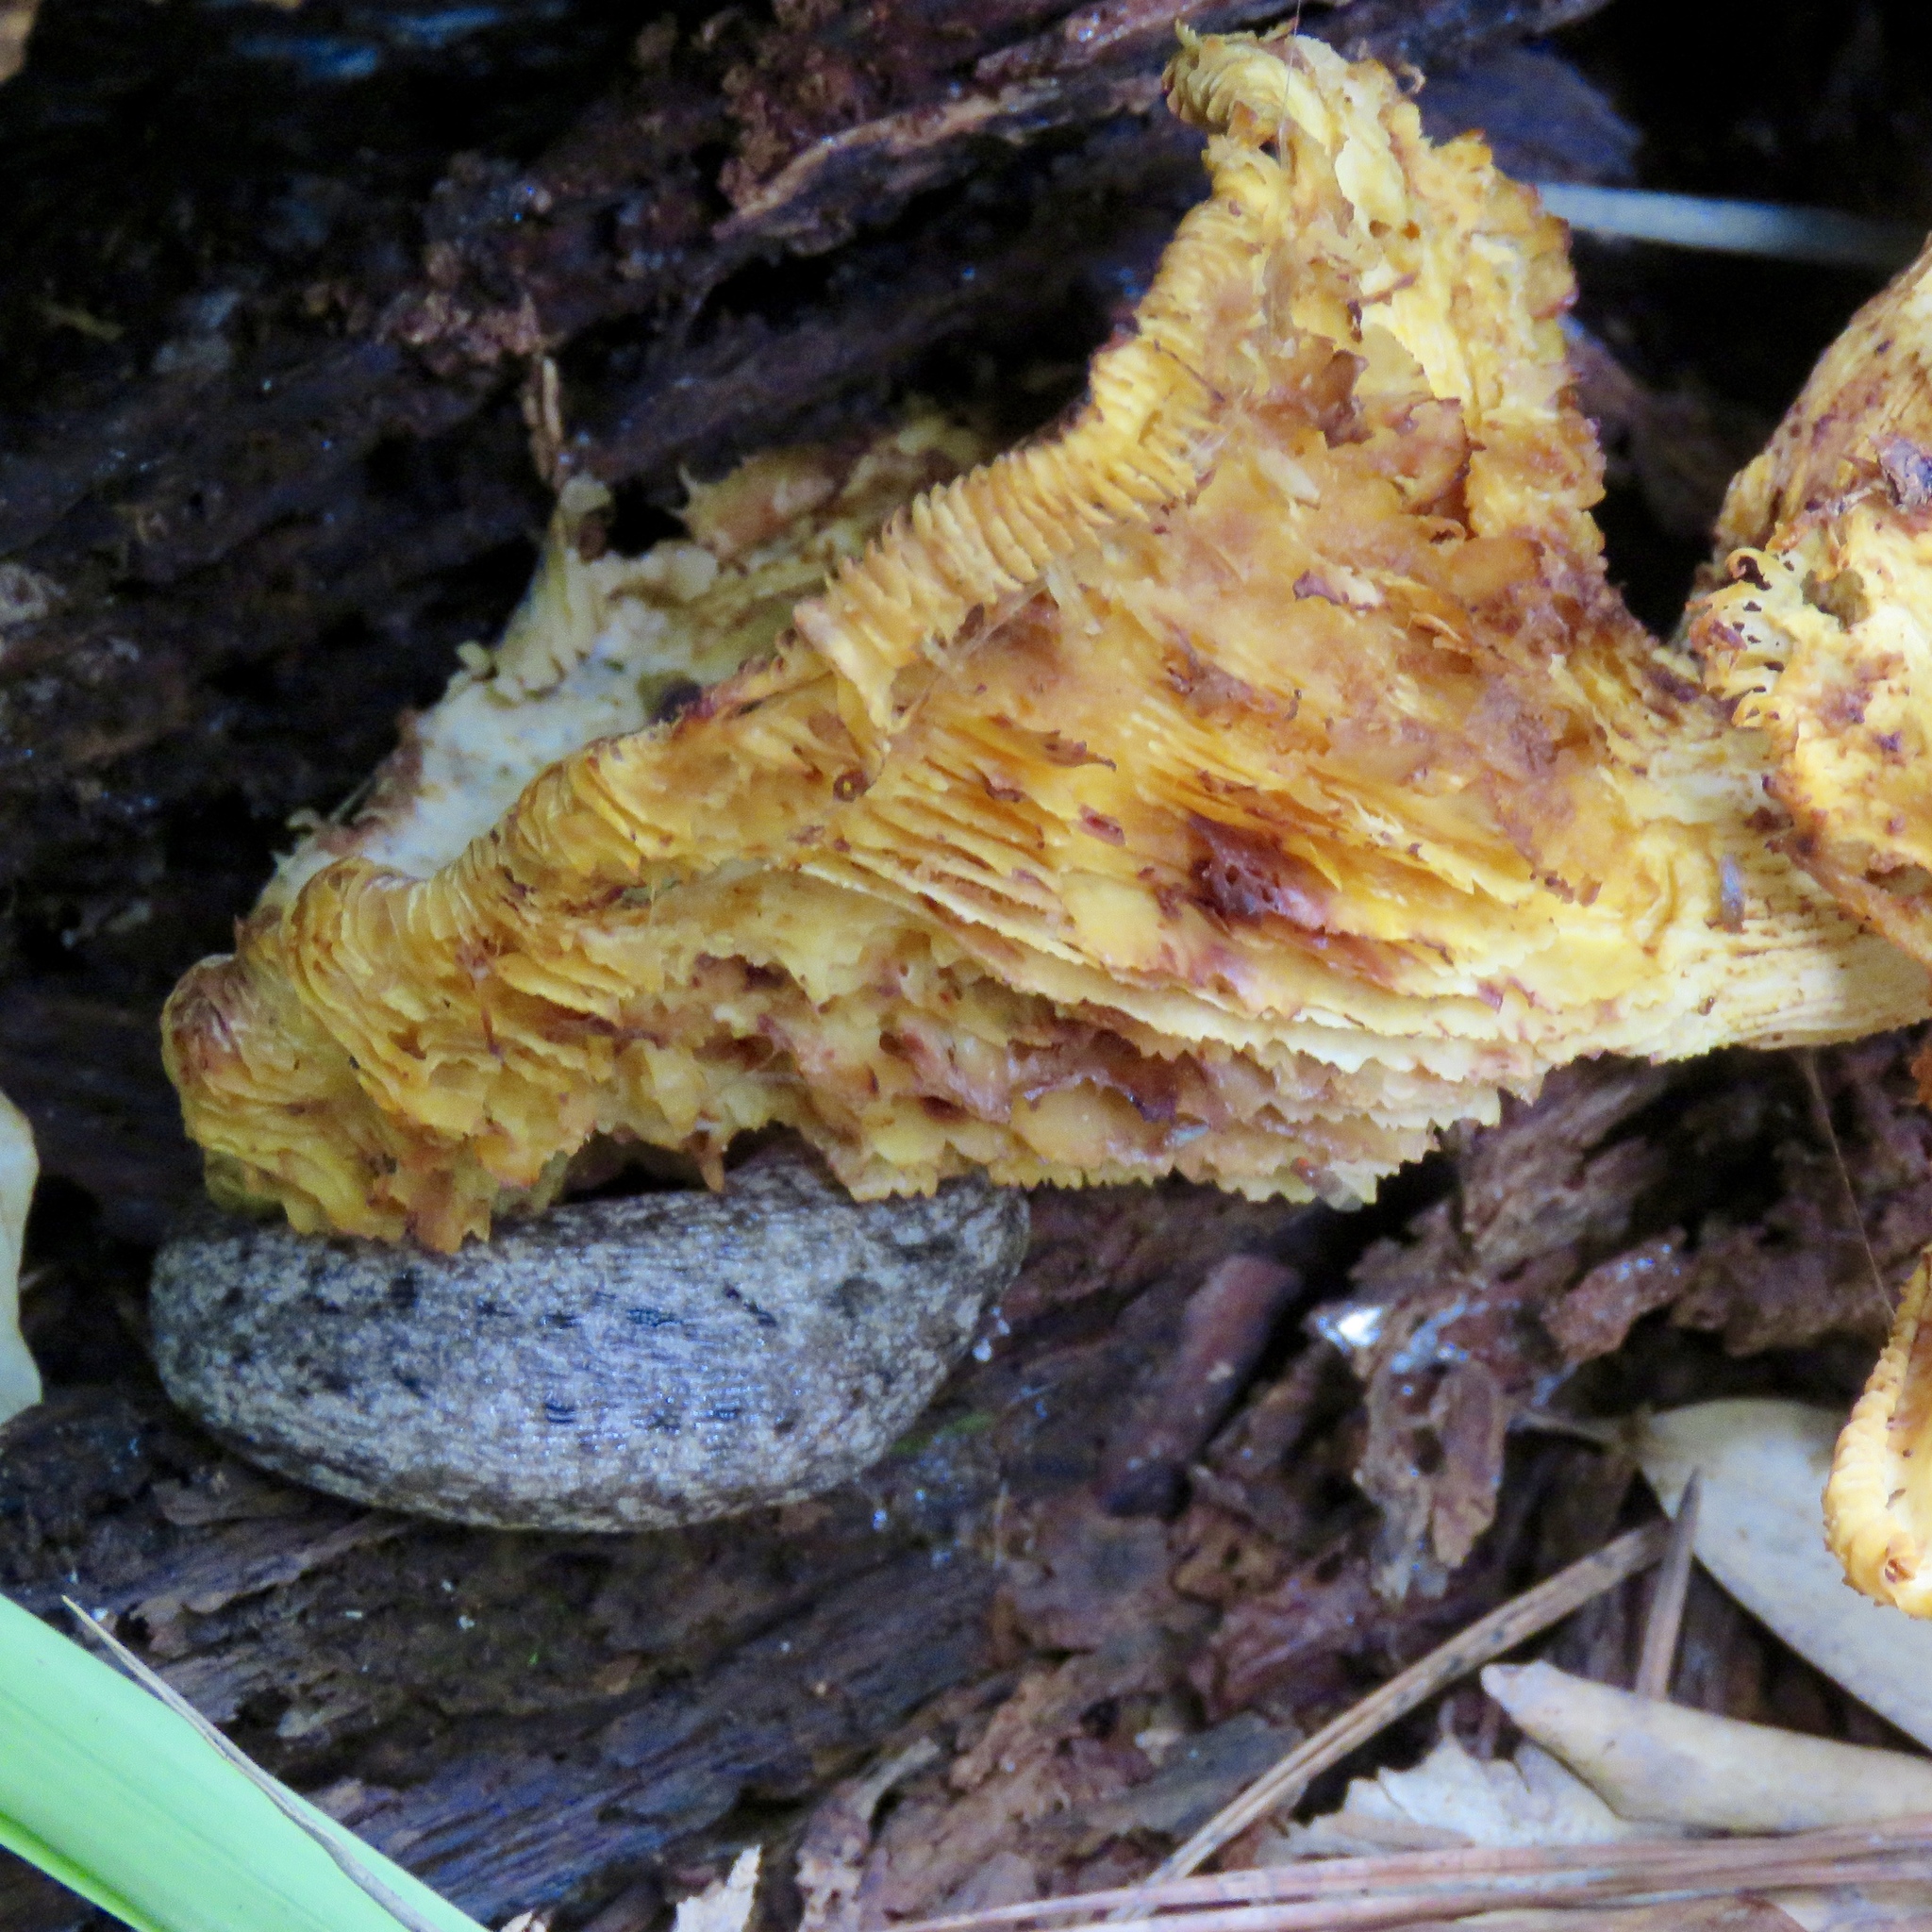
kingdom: Animalia
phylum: Mollusca
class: Gastropoda
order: Stylommatophora
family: Philomycidae
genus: Philomycus
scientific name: Philomycus carolinianus
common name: Carolina mantleslug
